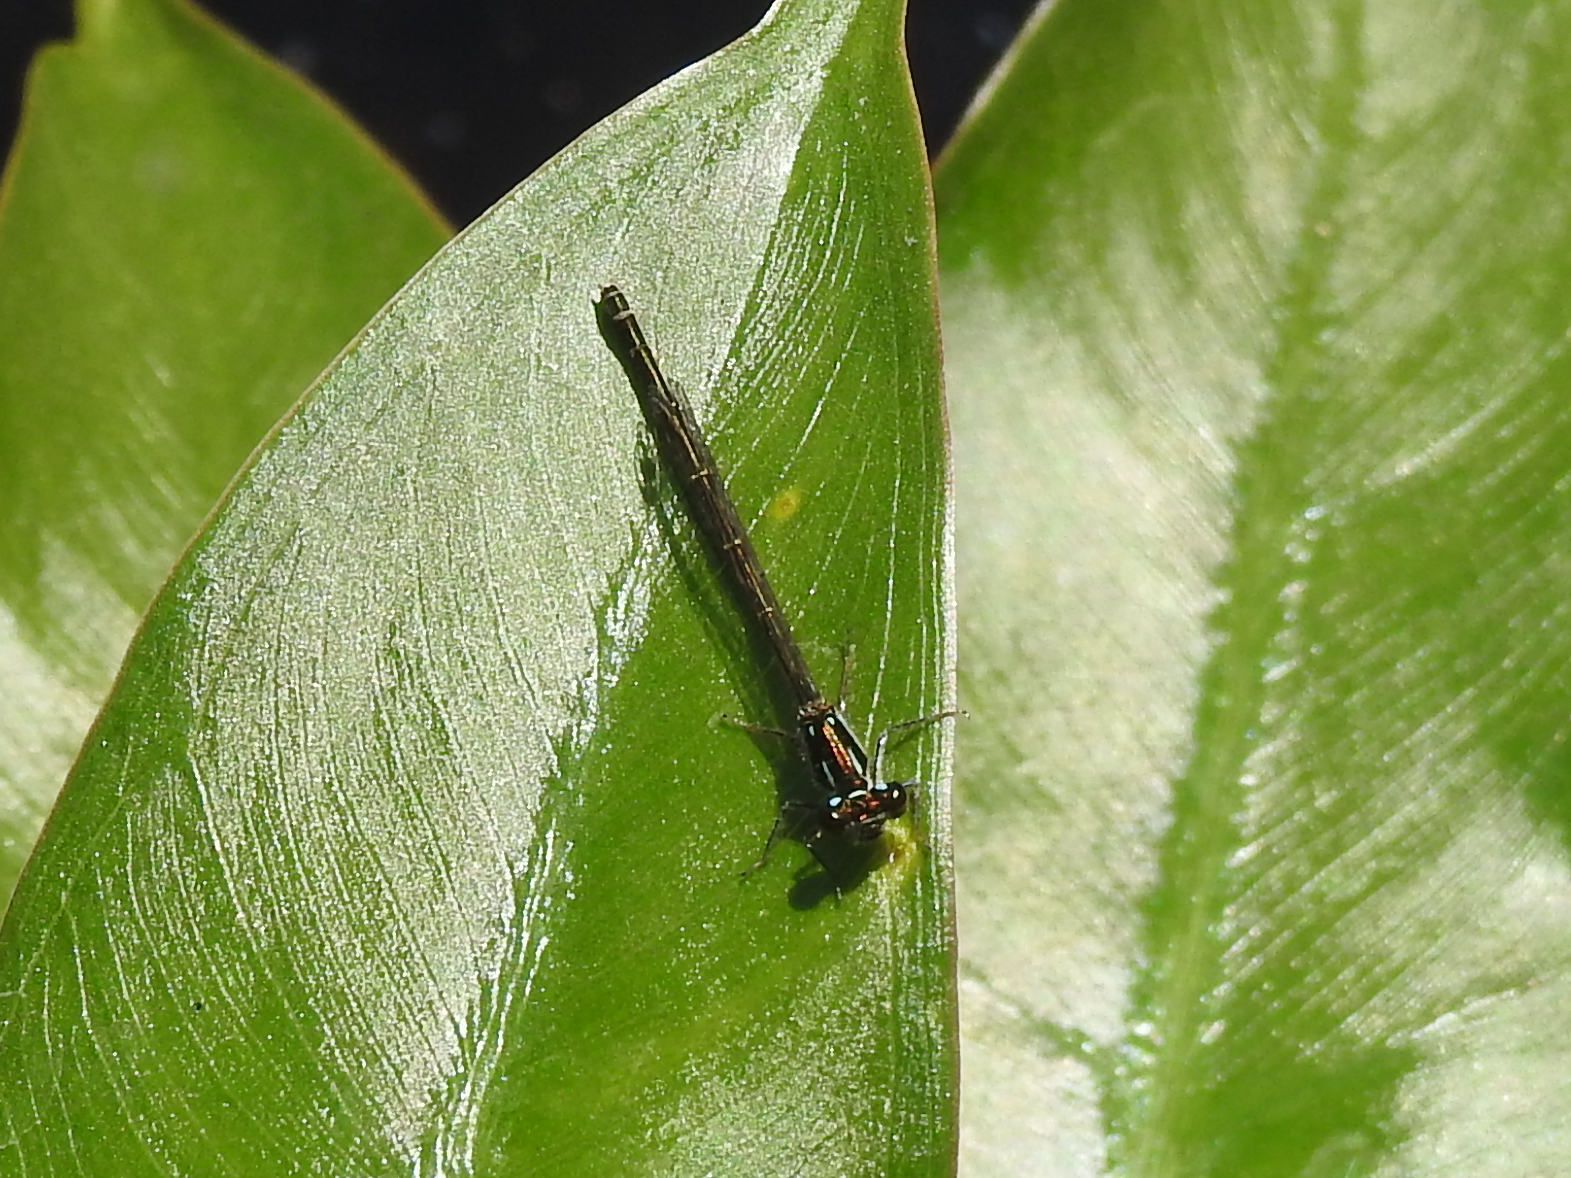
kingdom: Animalia
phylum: Arthropoda
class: Insecta
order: Odonata
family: Coenagrionidae
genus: Ischnura
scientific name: Ischnura posita
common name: Fragile forktail
